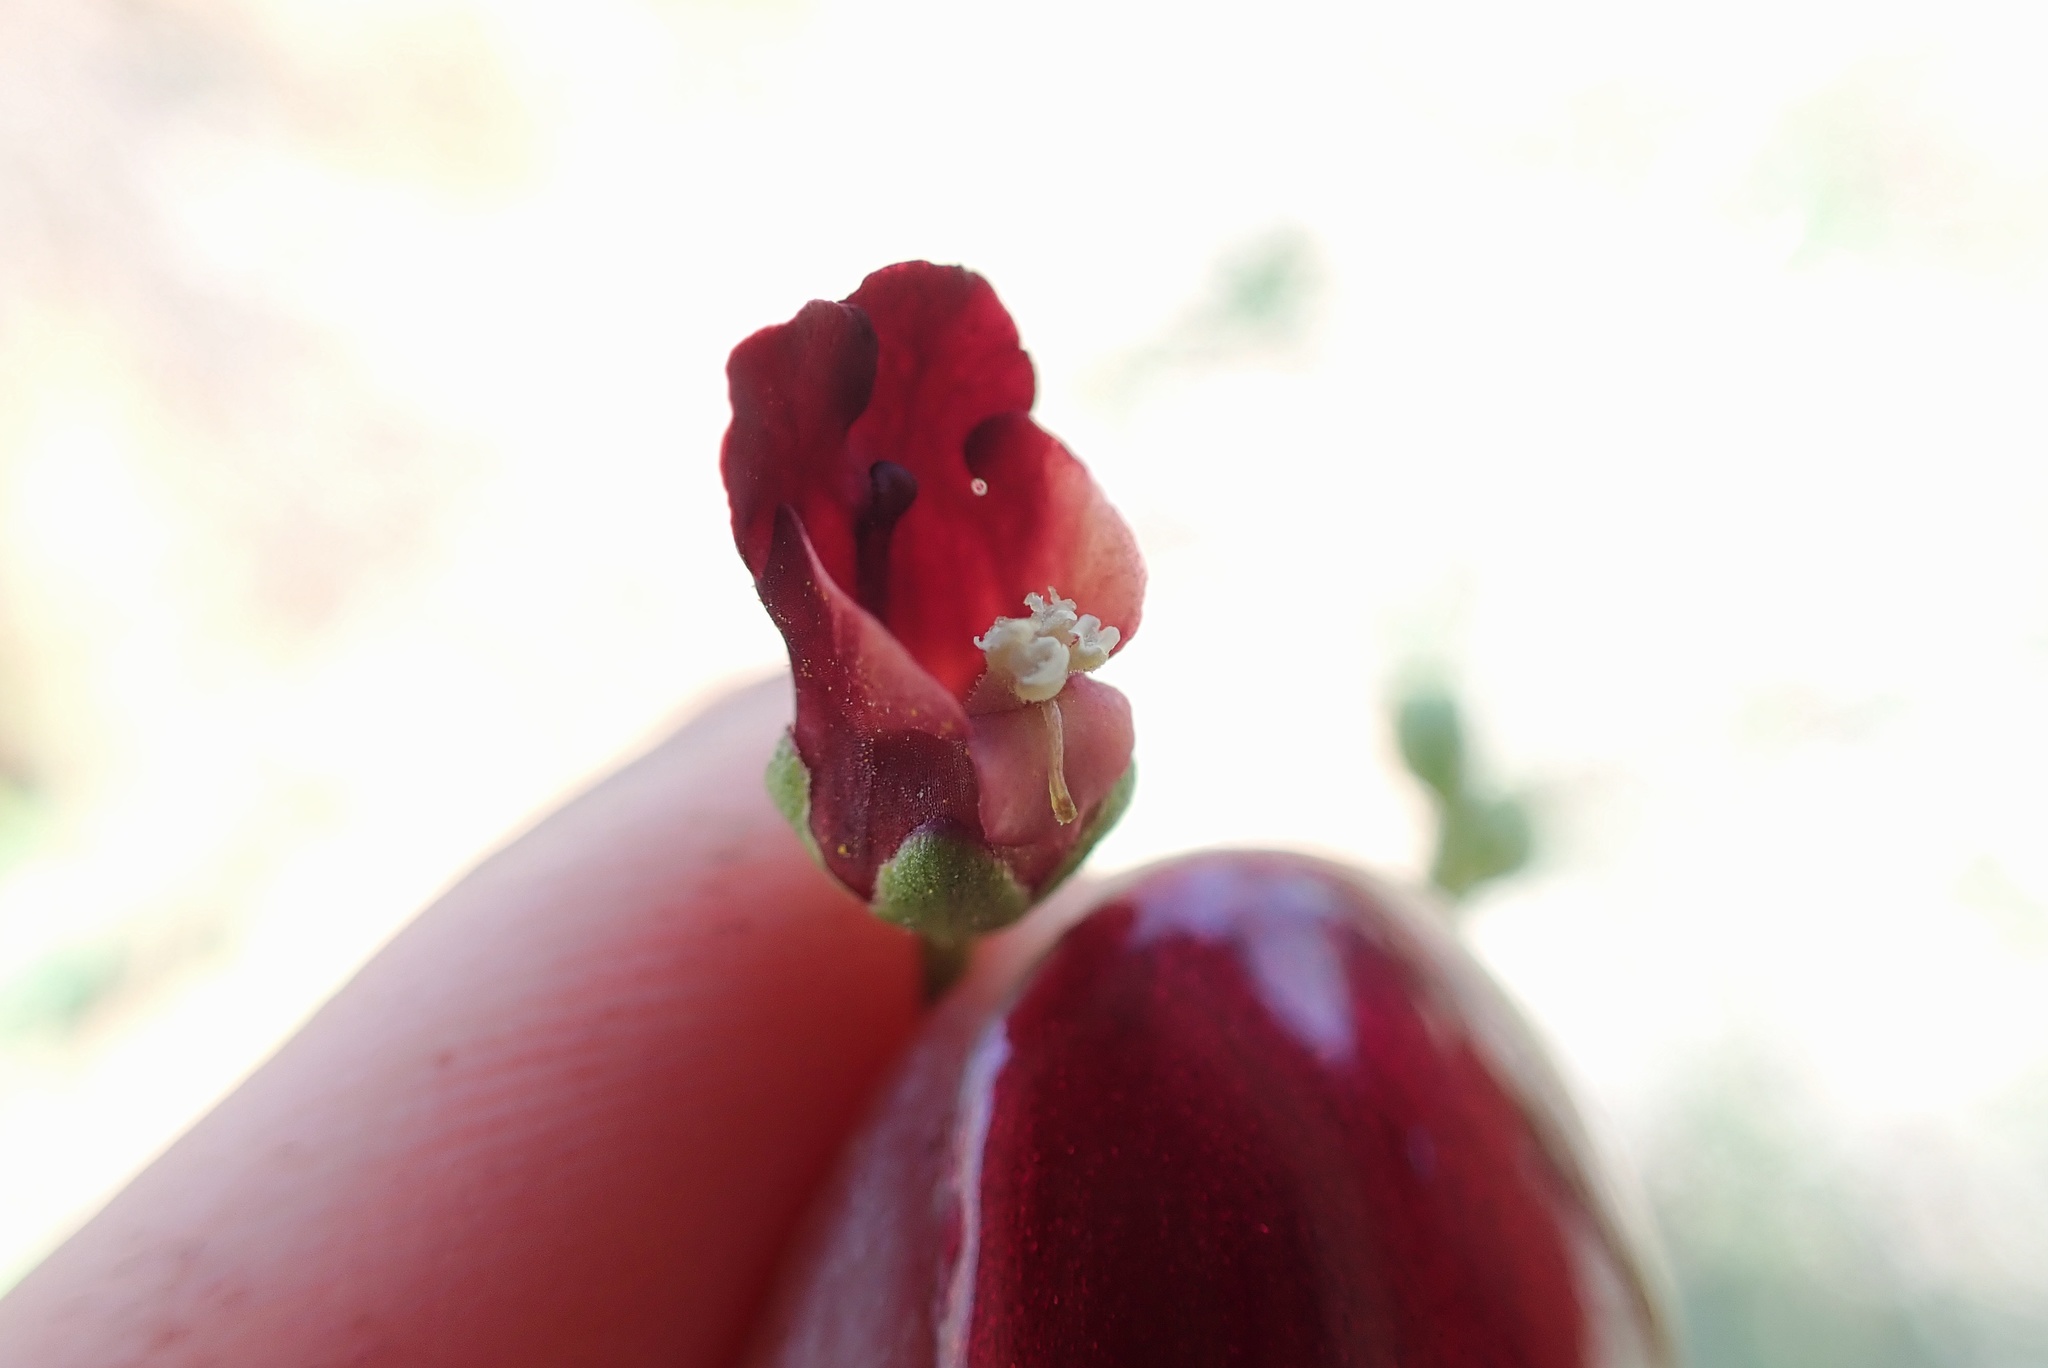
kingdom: Plantae
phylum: Tracheophyta
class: Magnoliopsida
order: Lamiales
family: Scrophulariaceae
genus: Scrophularia
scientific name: Scrophularia californica
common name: California figwort
